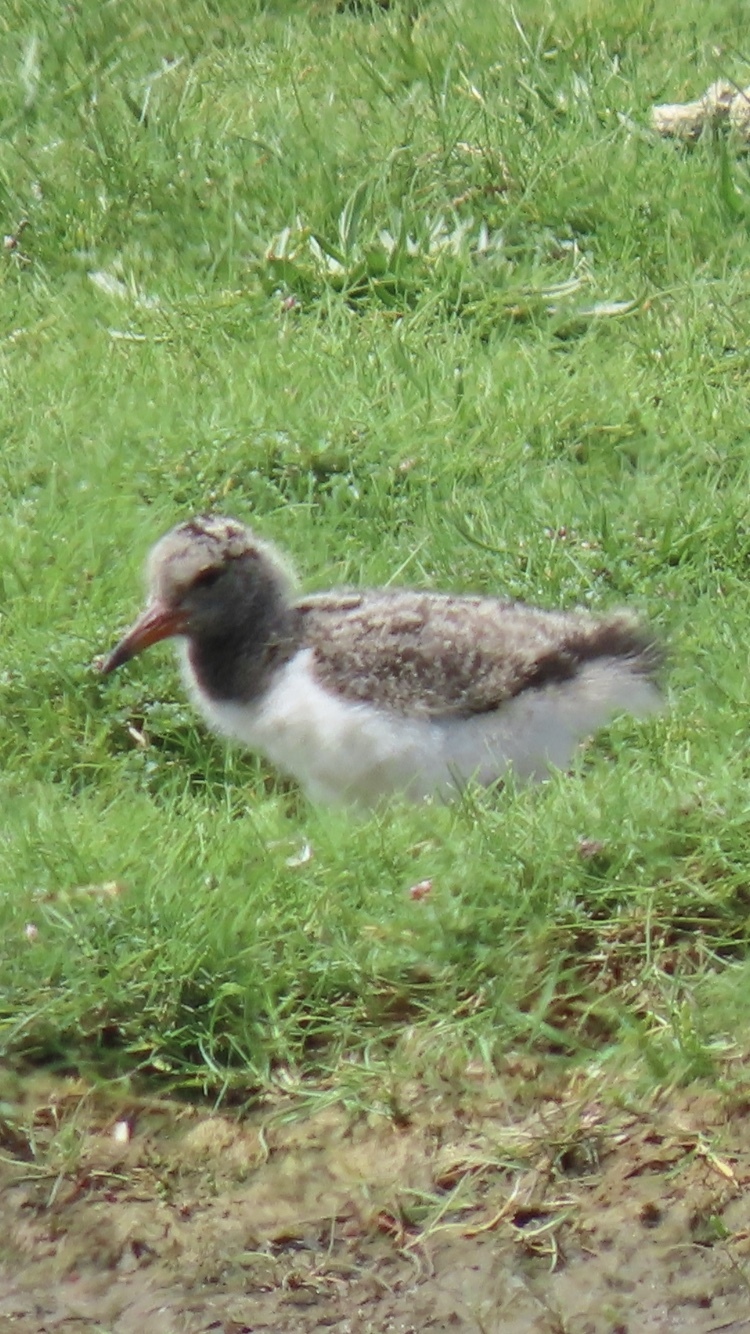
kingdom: Animalia
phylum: Chordata
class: Aves
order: Charadriiformes
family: Haematopodidae
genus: Haematopus
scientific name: Haematopus ostralegus
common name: Eurasian oystercatcher
